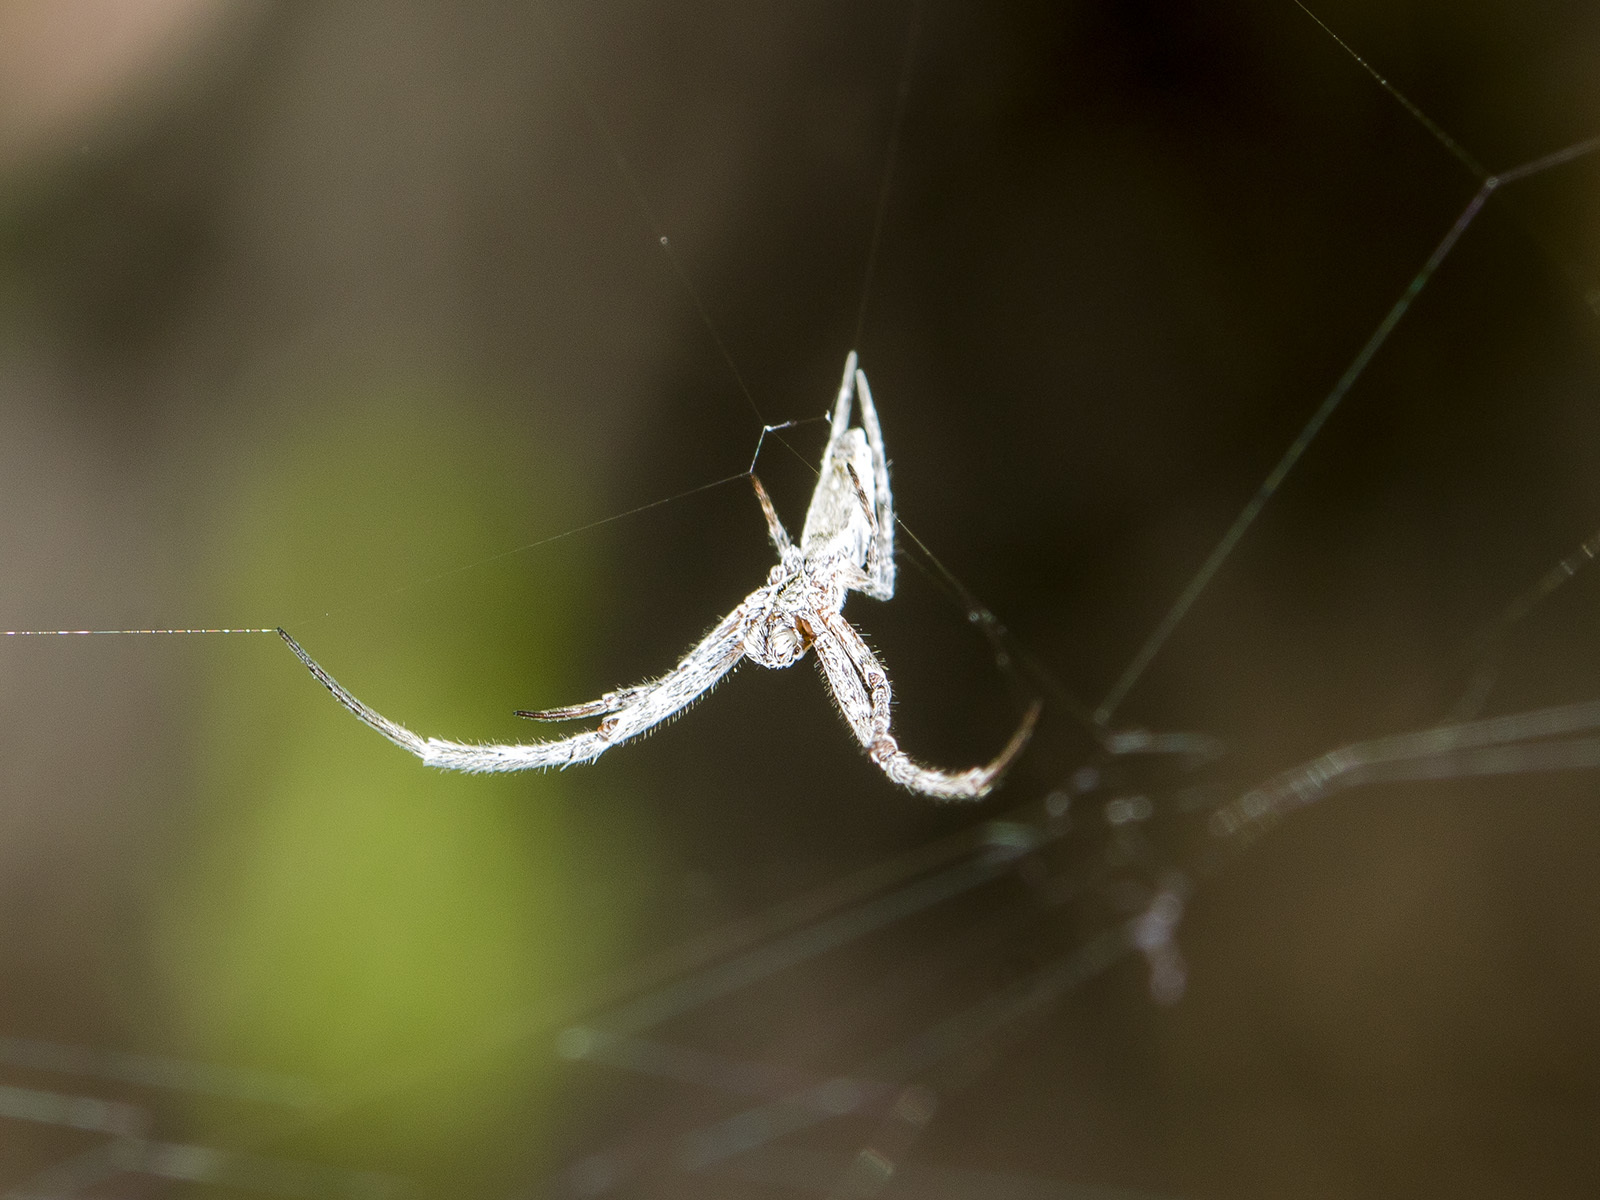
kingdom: Animalia
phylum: Arthropoda
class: Arachnida
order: Araneae
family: Uloboridae
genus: Uloborus
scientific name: Uloborus walckenaerius
